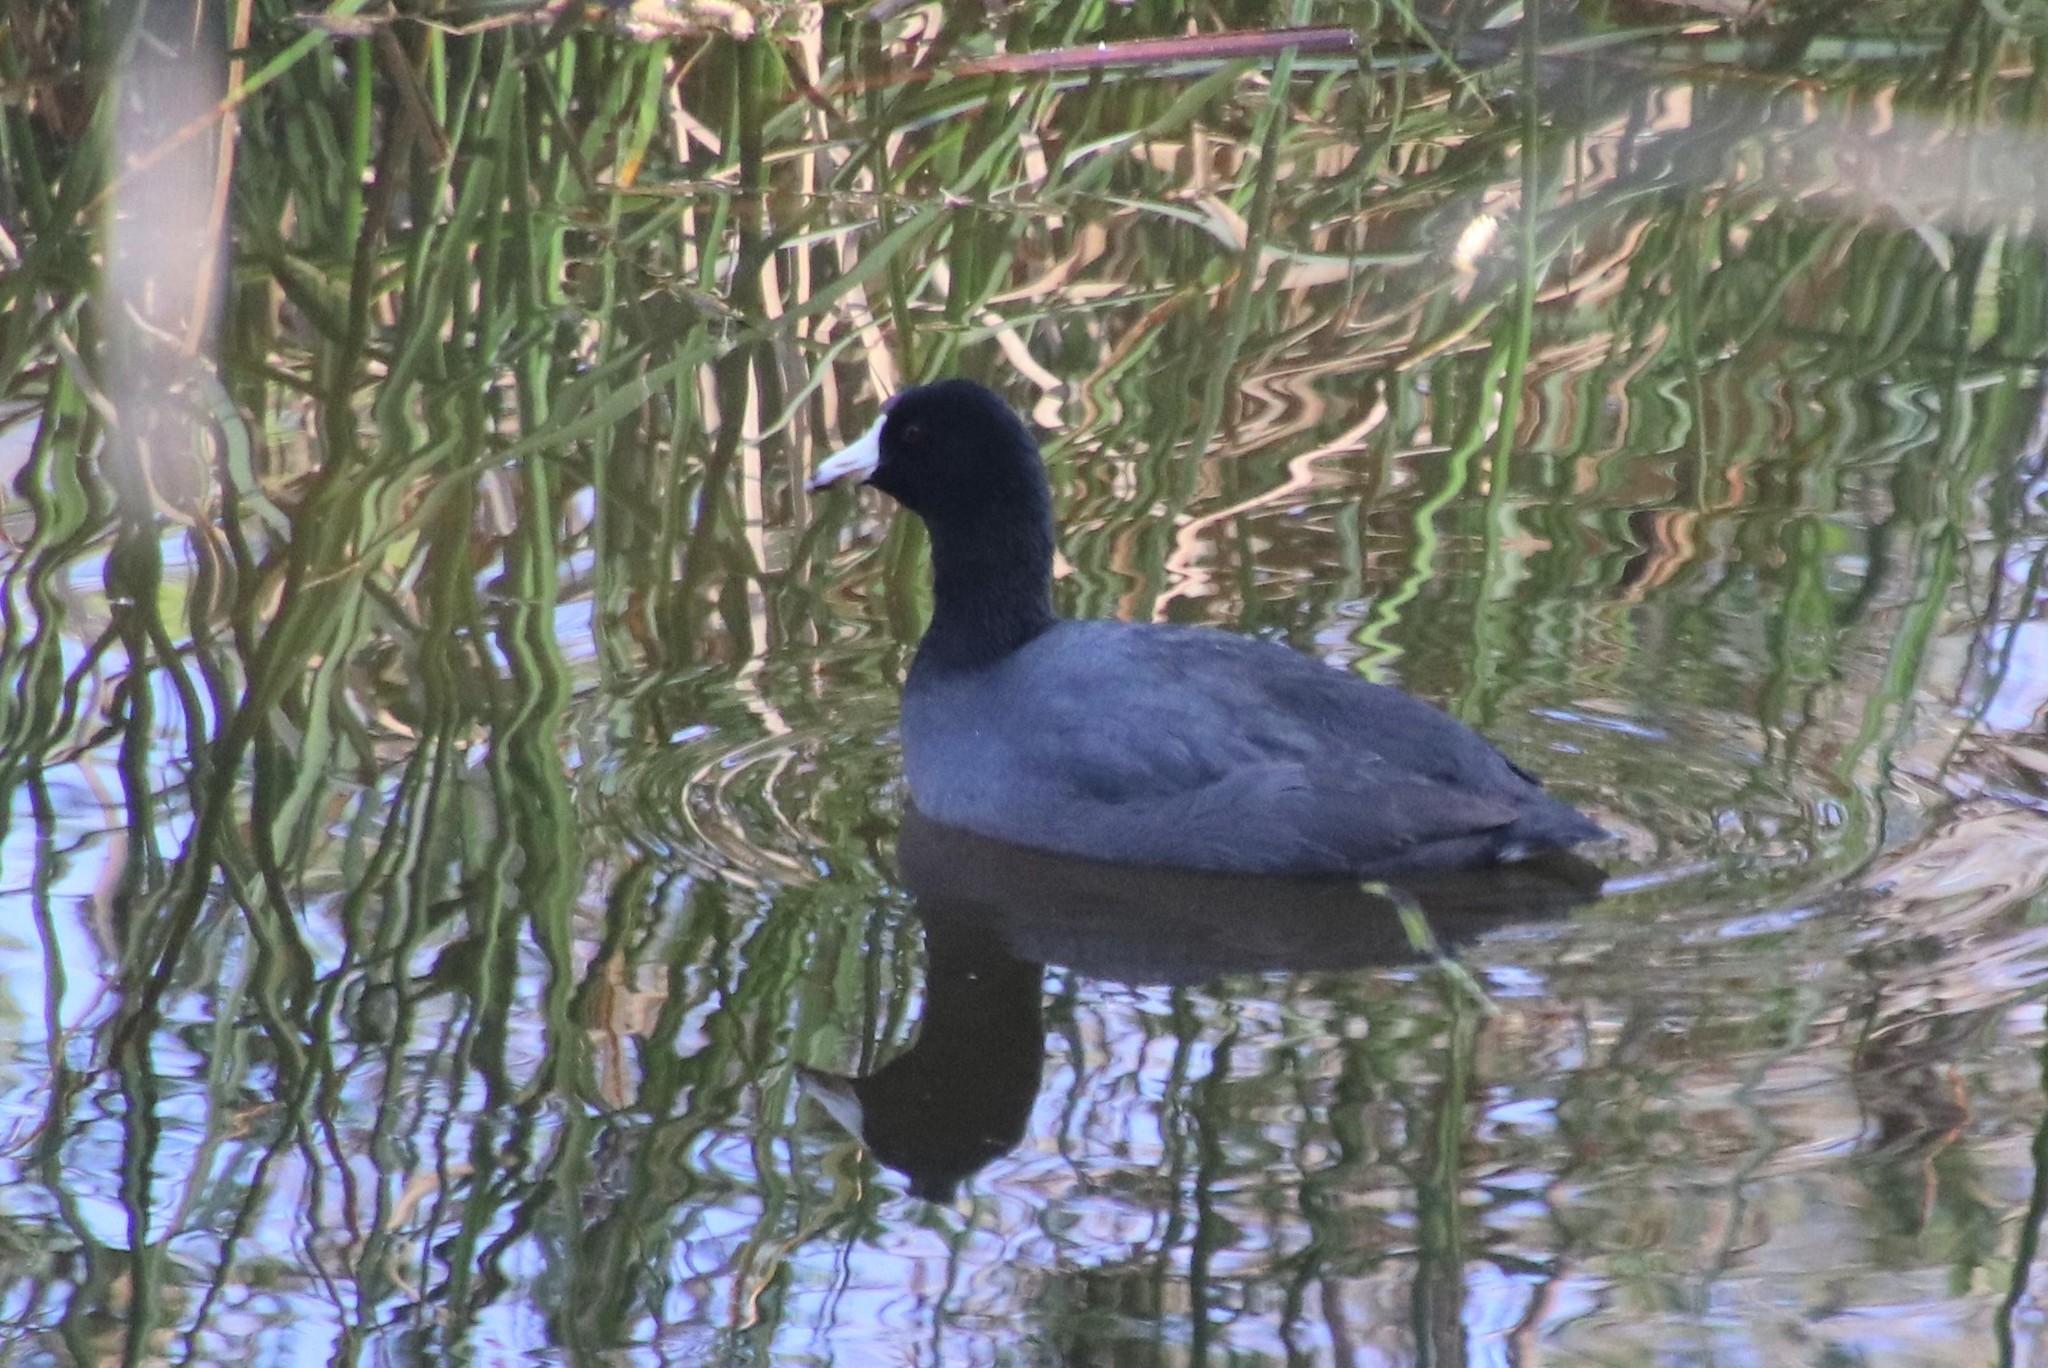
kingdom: Animalia
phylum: Chordata
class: Aves
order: Gruiformes
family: Rallidae
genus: Fulica
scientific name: Fulica americana
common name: American coot
